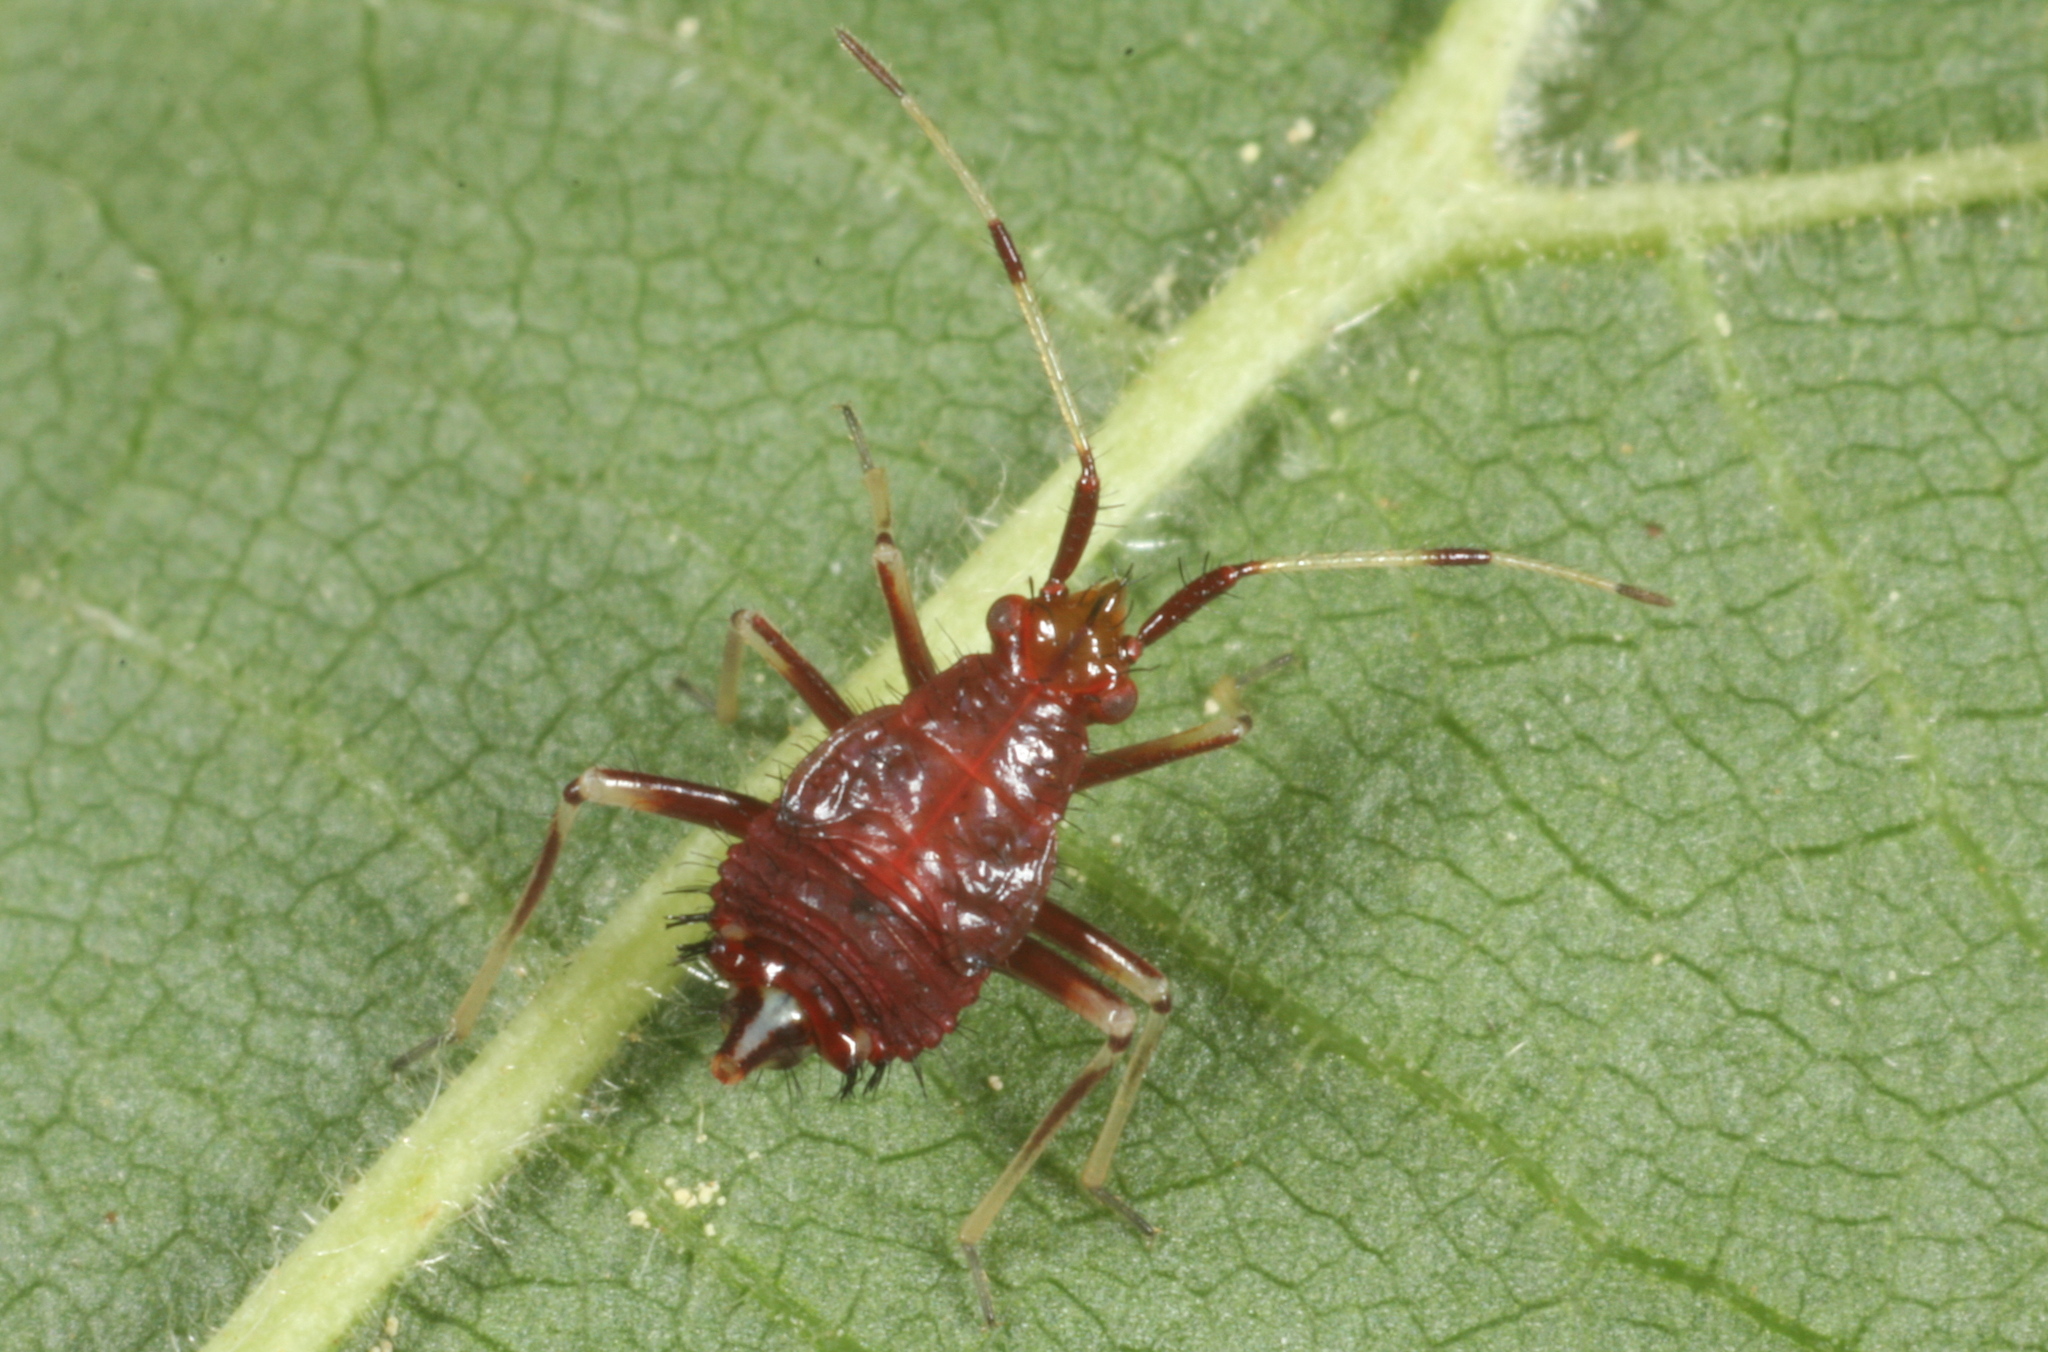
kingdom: Animalia
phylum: Arthropoda
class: Insecta
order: Hemiptera
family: Miridae
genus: Deraeocoris
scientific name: Deraeocoris ruber
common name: Plant bug
